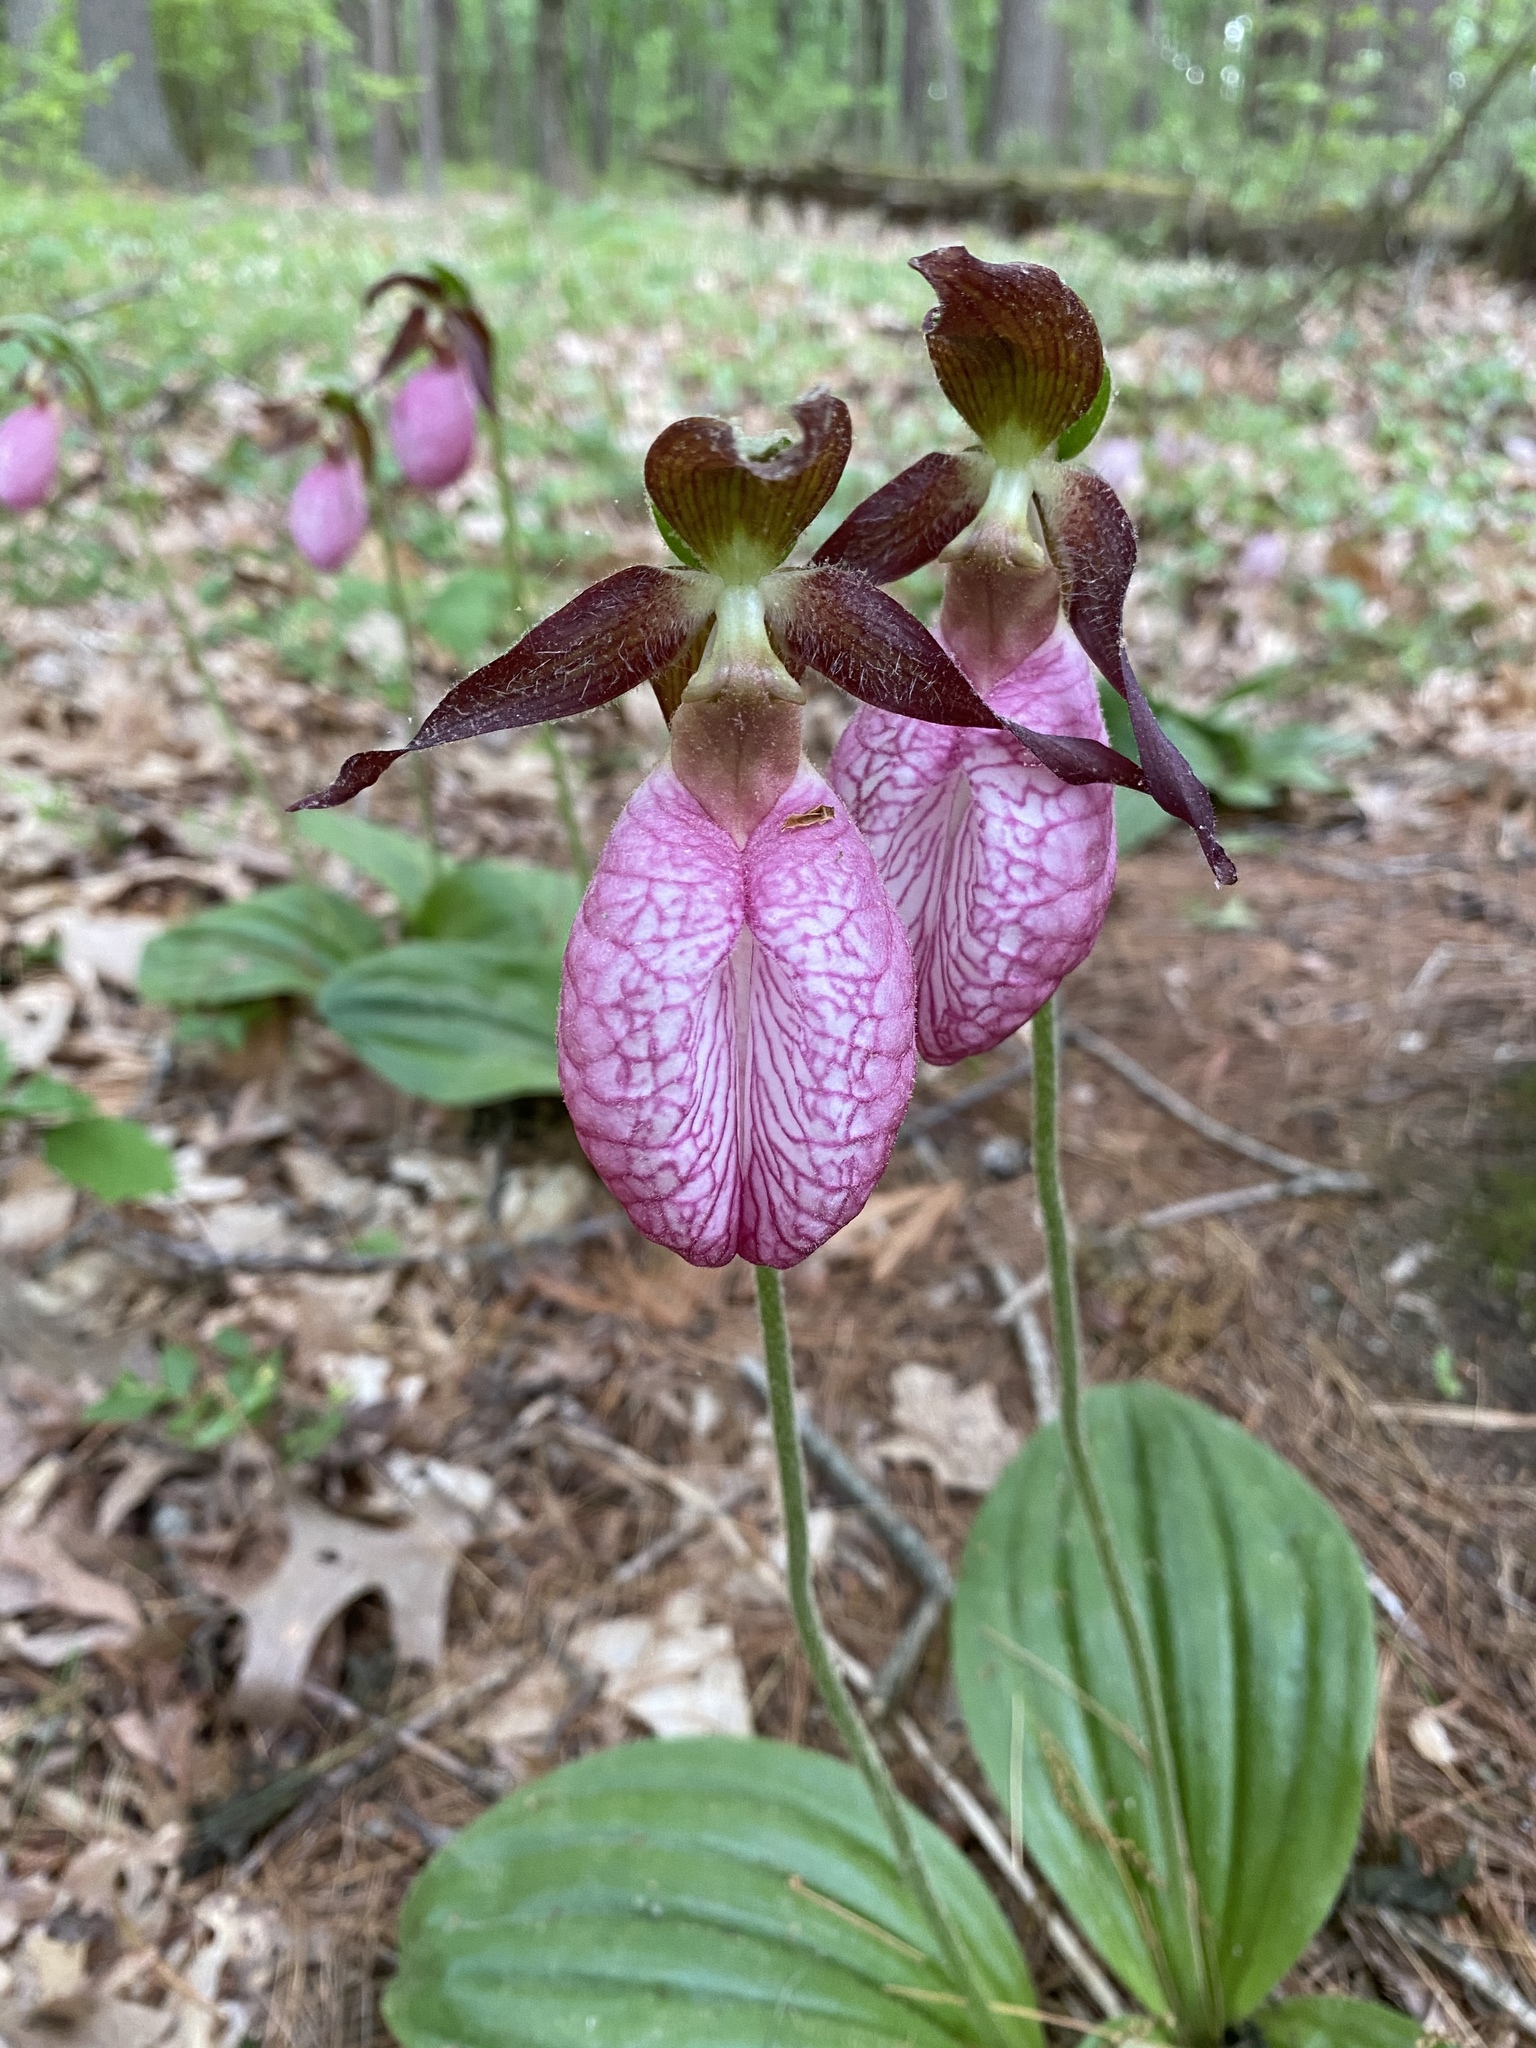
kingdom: Plantae
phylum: Tracheophyta
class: Liliopsida
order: Asparagales
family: Orchidaceae
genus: Cypripedium
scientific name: Cypripedium acaule
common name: Pink lady's-slipper
